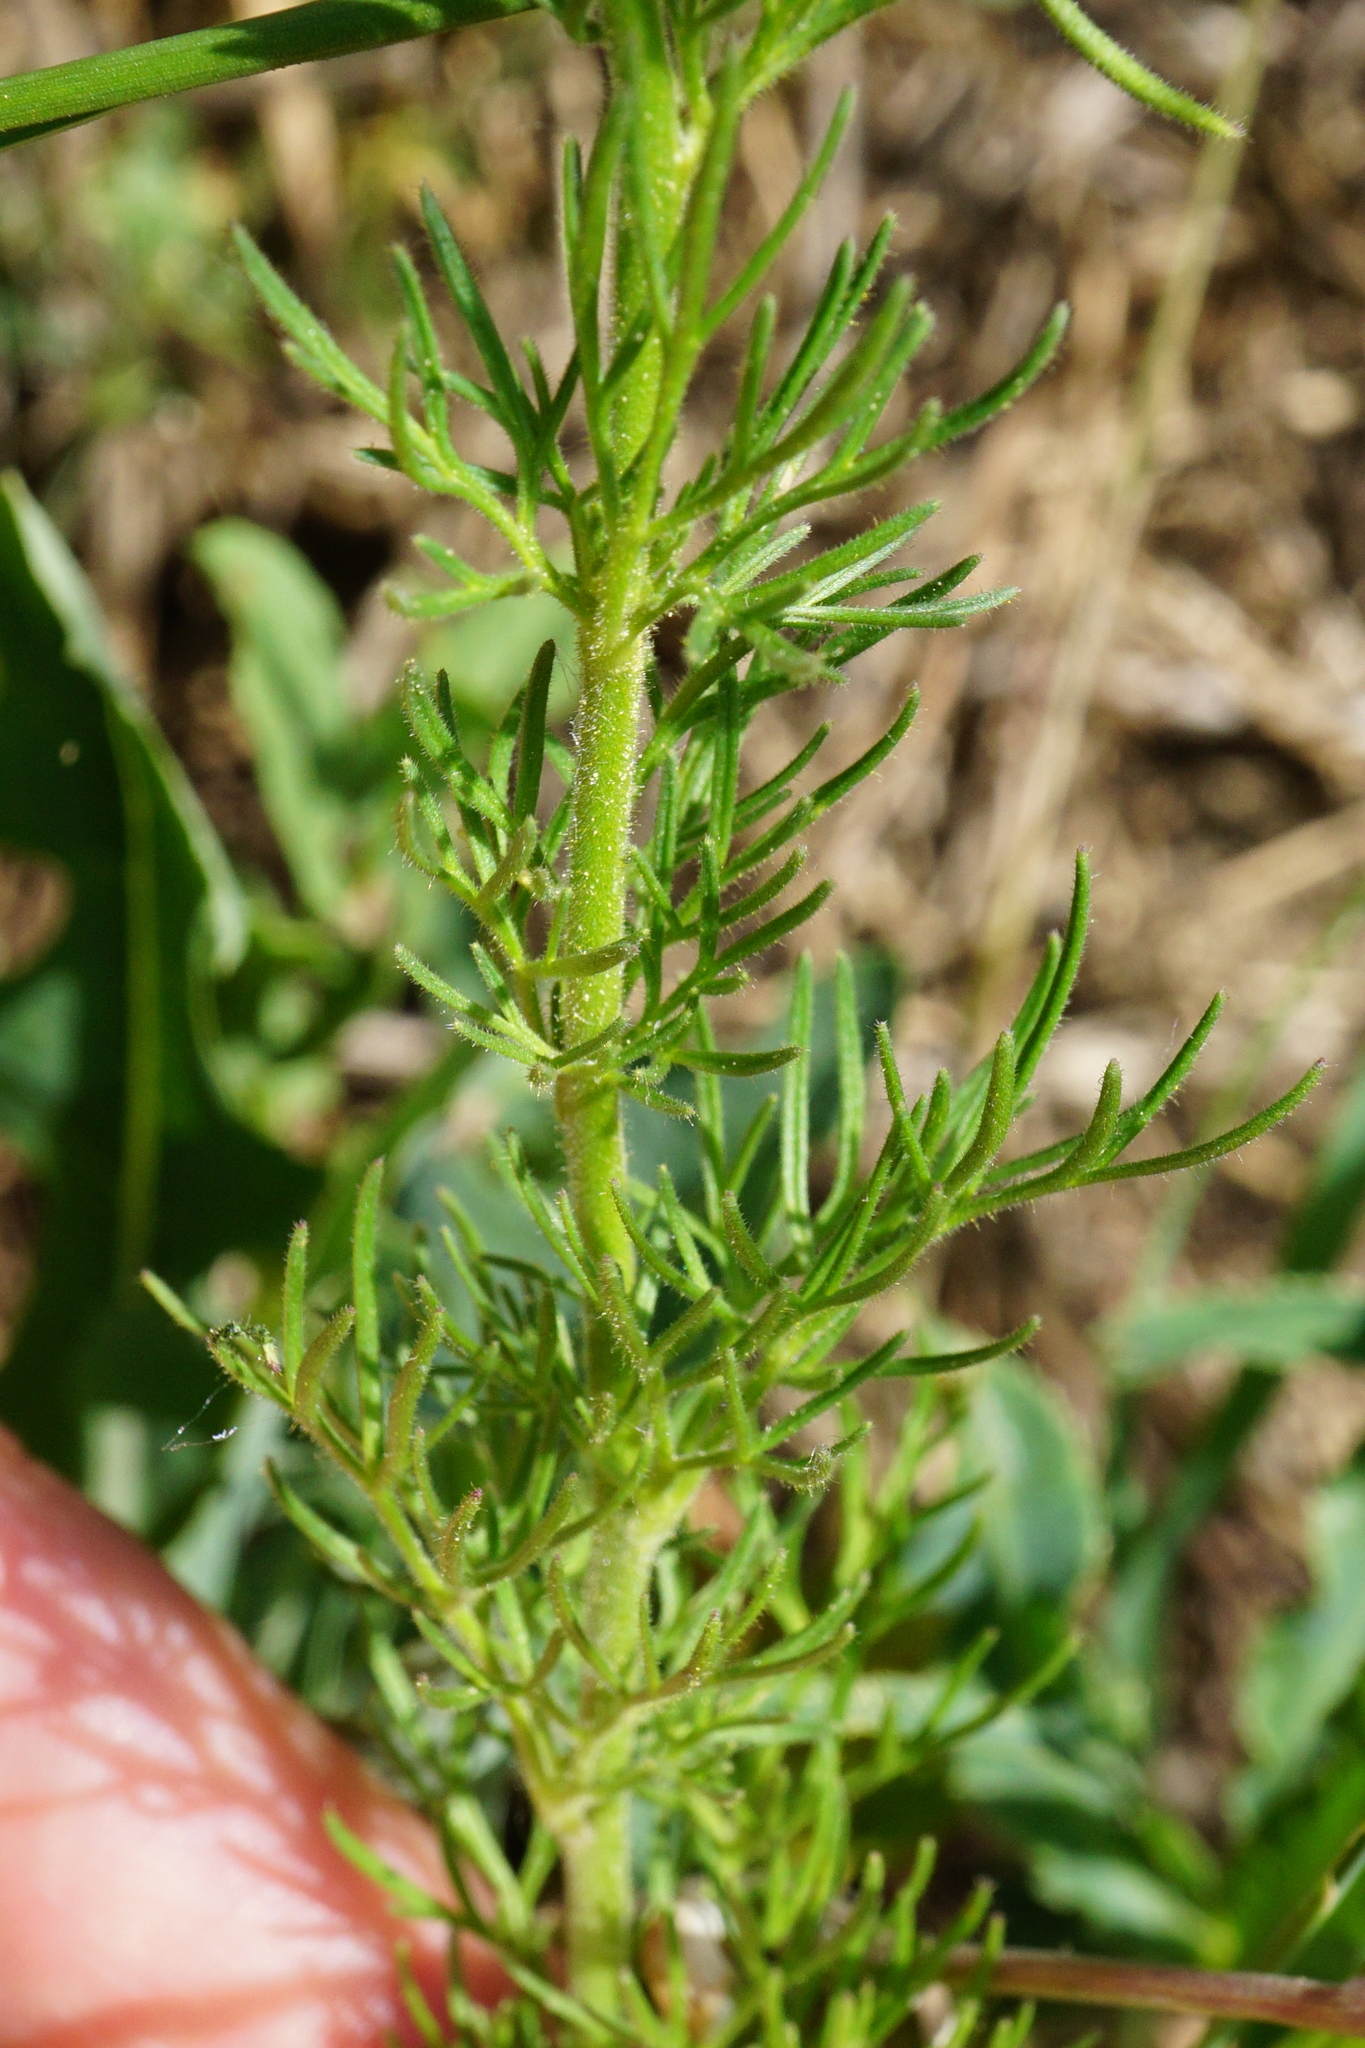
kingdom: Plantae
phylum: Tracheophyta
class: Magnoliopsida
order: Ranunculales
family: Ranunculaceae
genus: Delphinium
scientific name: Delphinium hispanicum
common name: Oriental knight's-spur
